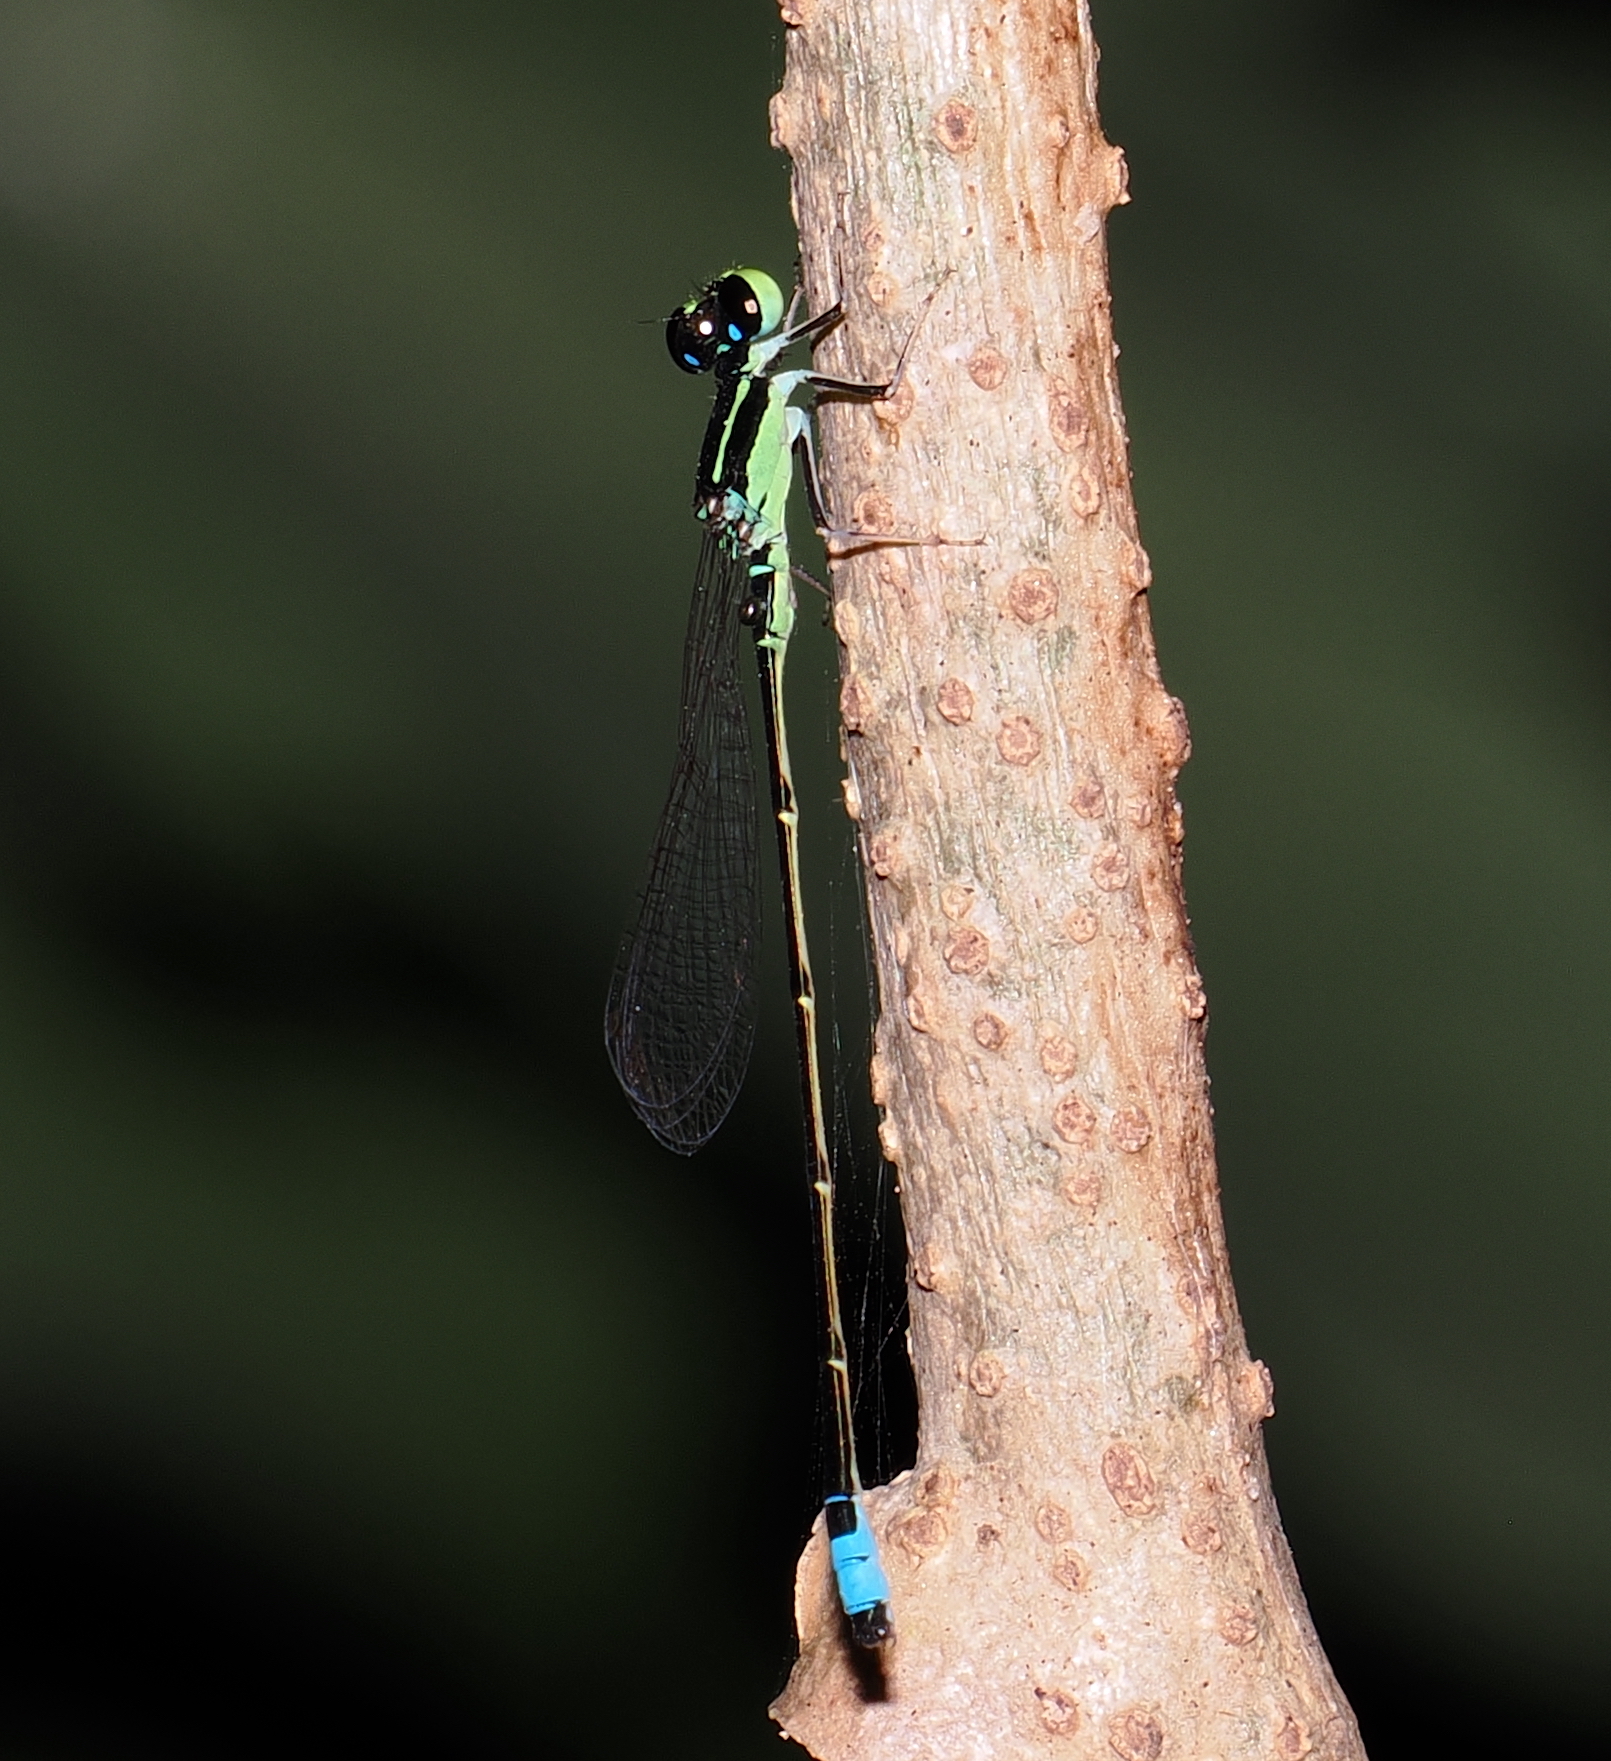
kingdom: Animalia
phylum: Arthropoda
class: Insecta
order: Odonata
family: Coenagrionidae
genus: Ischnura
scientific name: Ischnura capreolus
